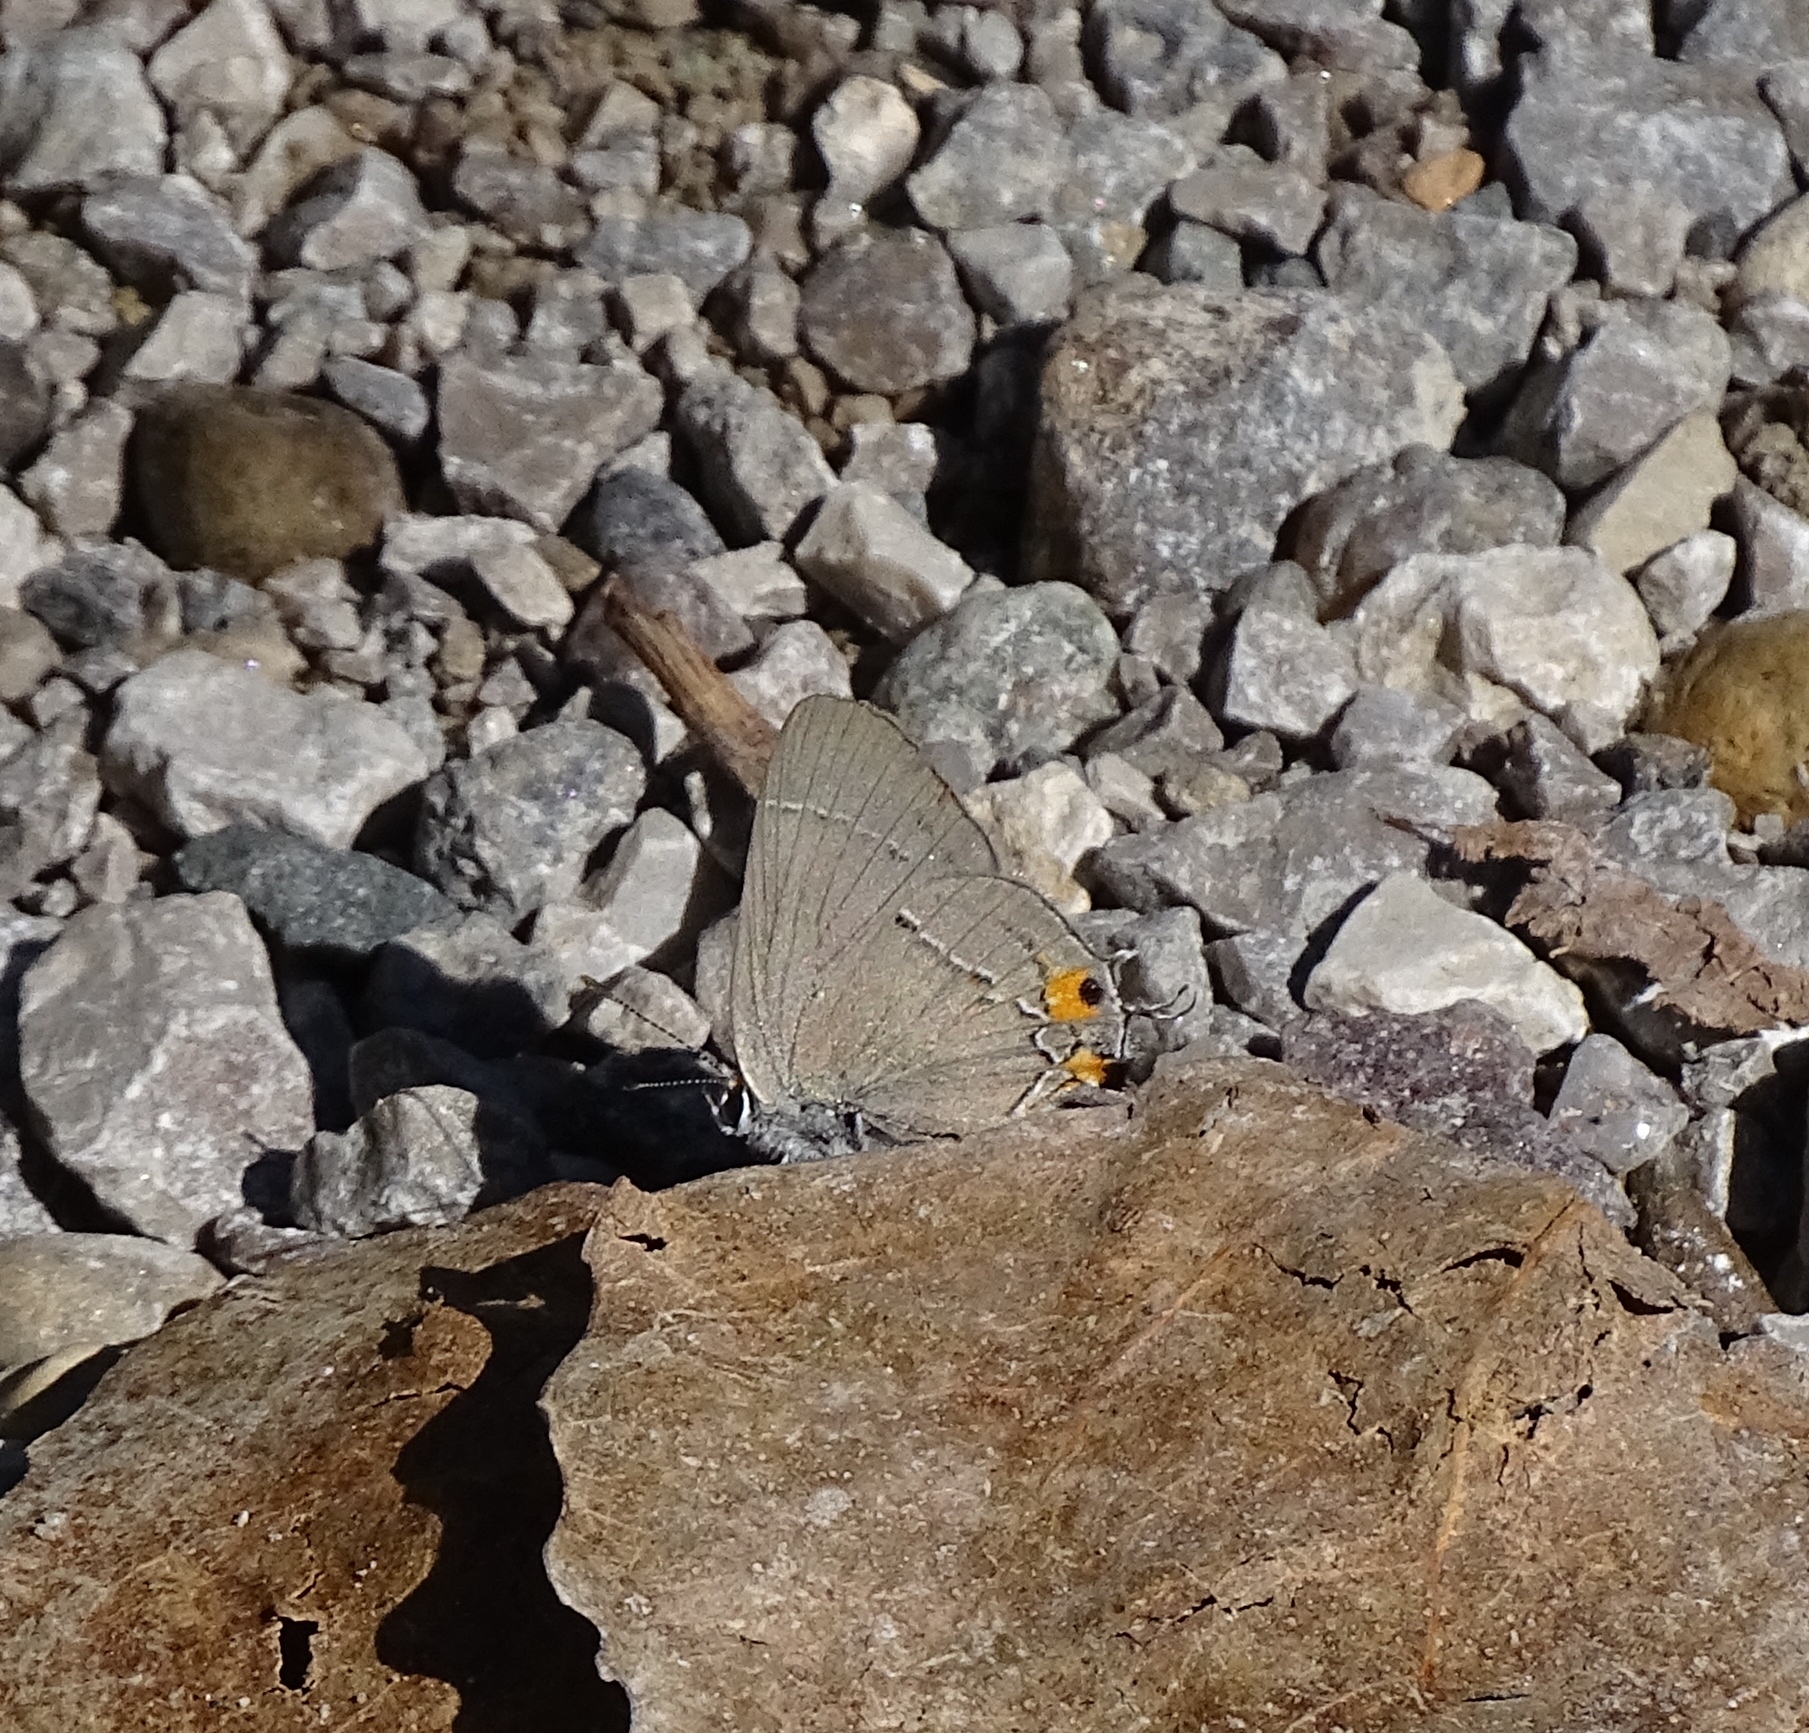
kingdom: Animalia
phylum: Arthropoda
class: Insecta
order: Lepidoptera
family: Lycaenidae
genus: Strymon
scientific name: Strymon melinus
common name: Gray hairstreak
